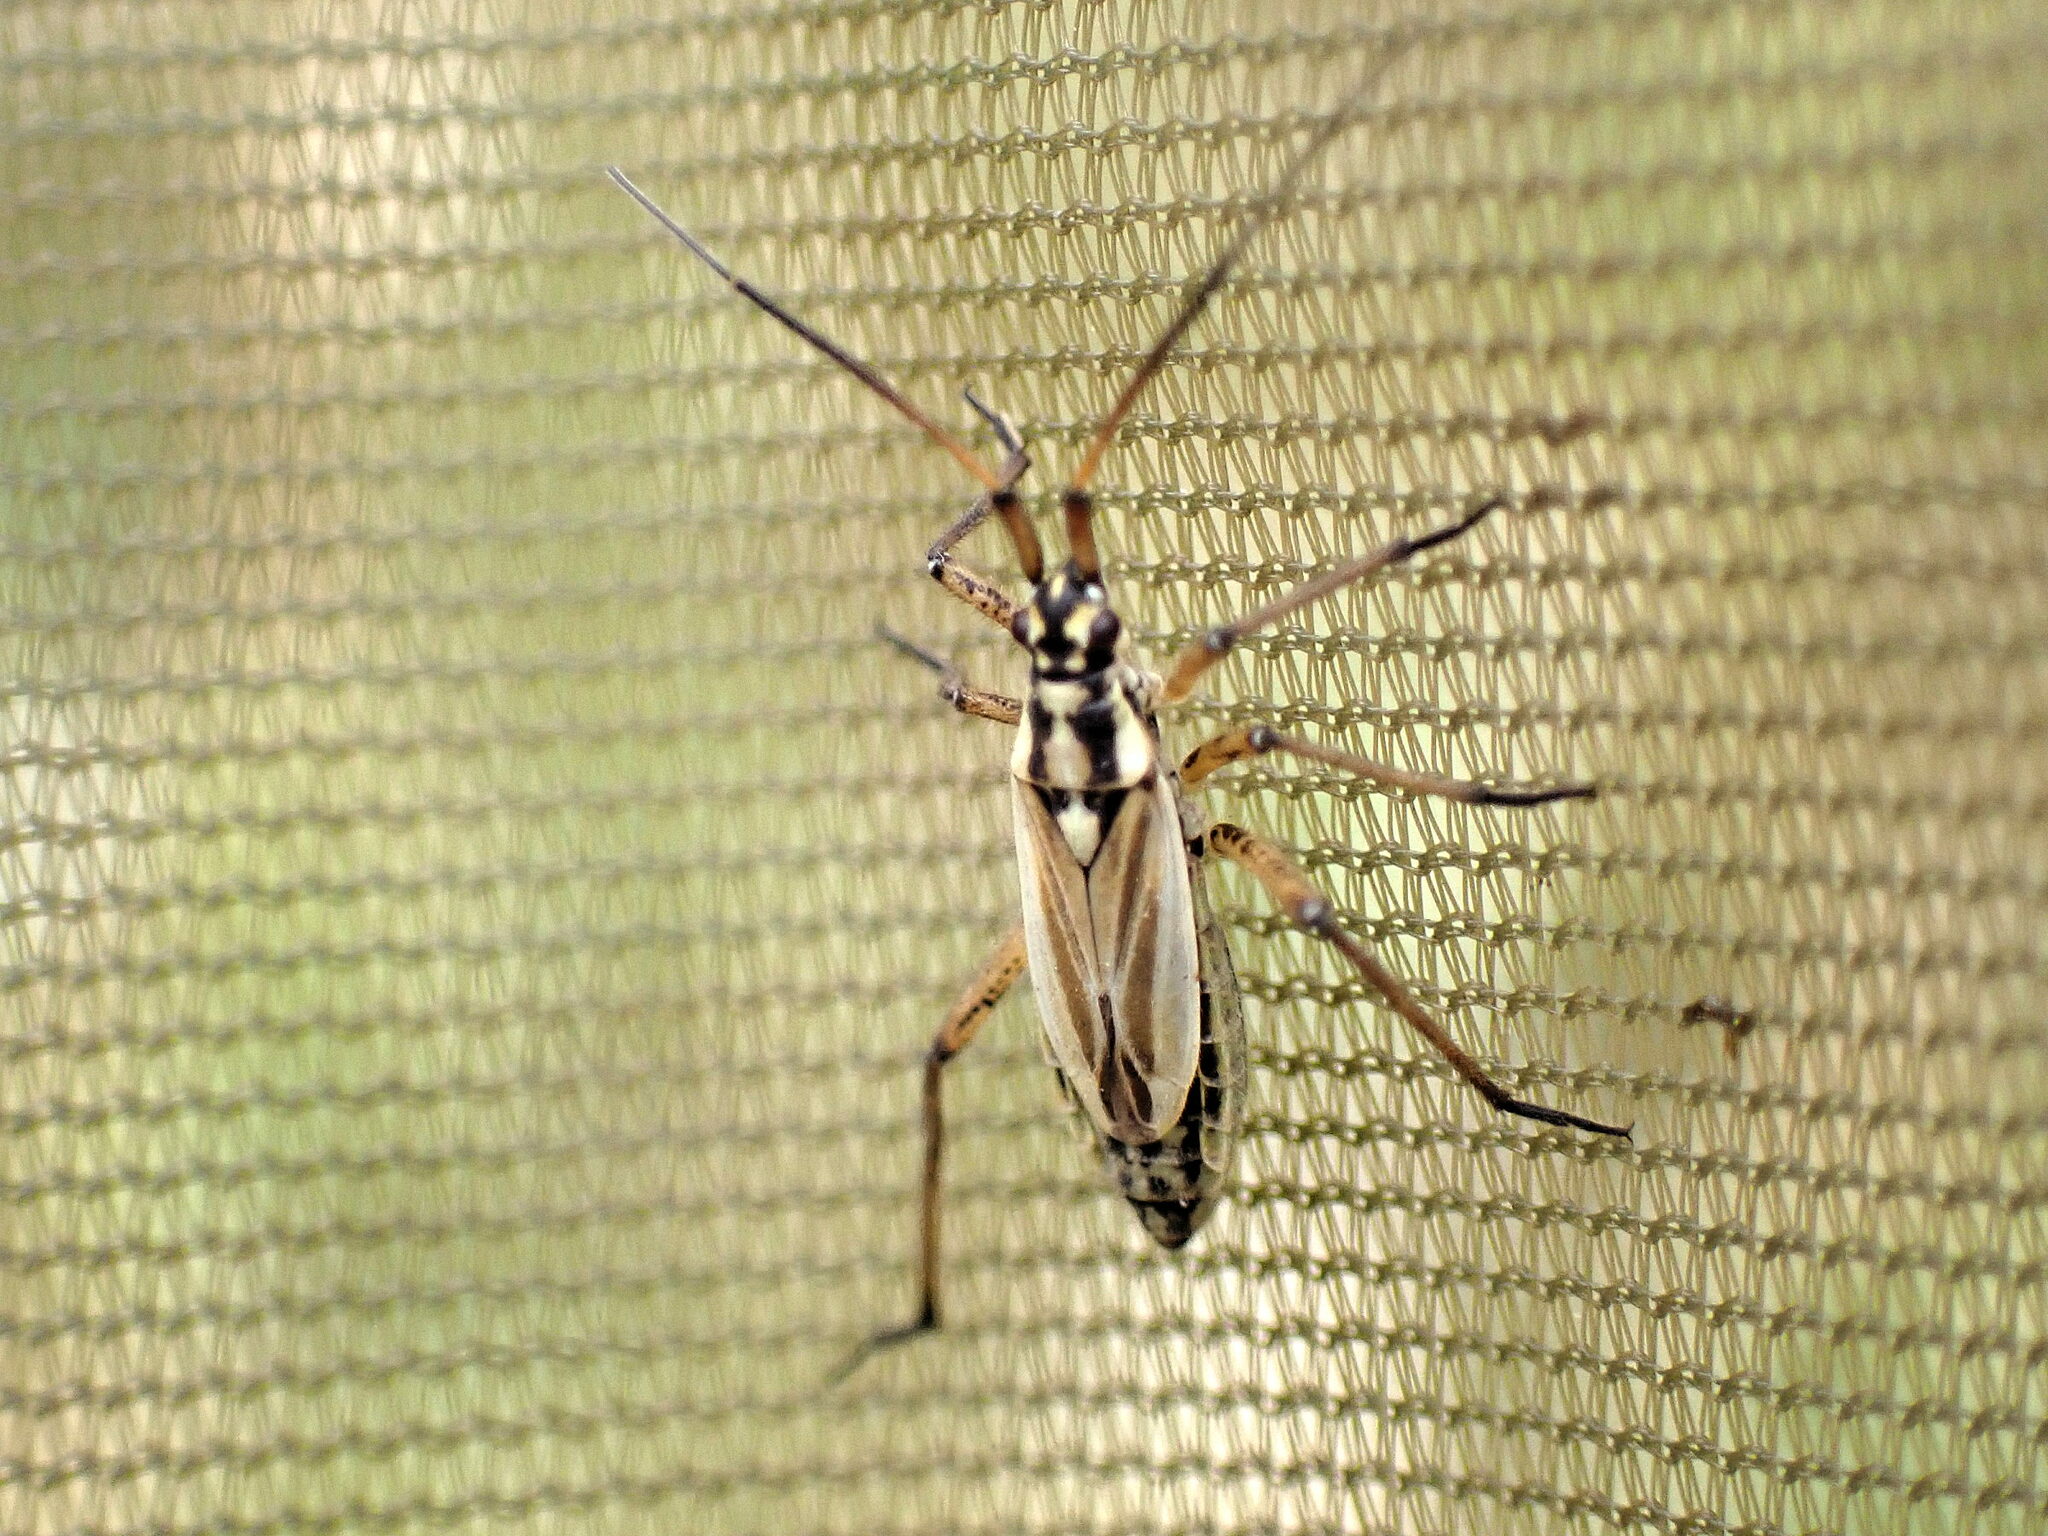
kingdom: Animalia
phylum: Arthropoda
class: Insecta
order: Hemiptera
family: Miridae
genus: Leptopterna
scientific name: Leptopterna dolabrata
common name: Meadow plant bug
